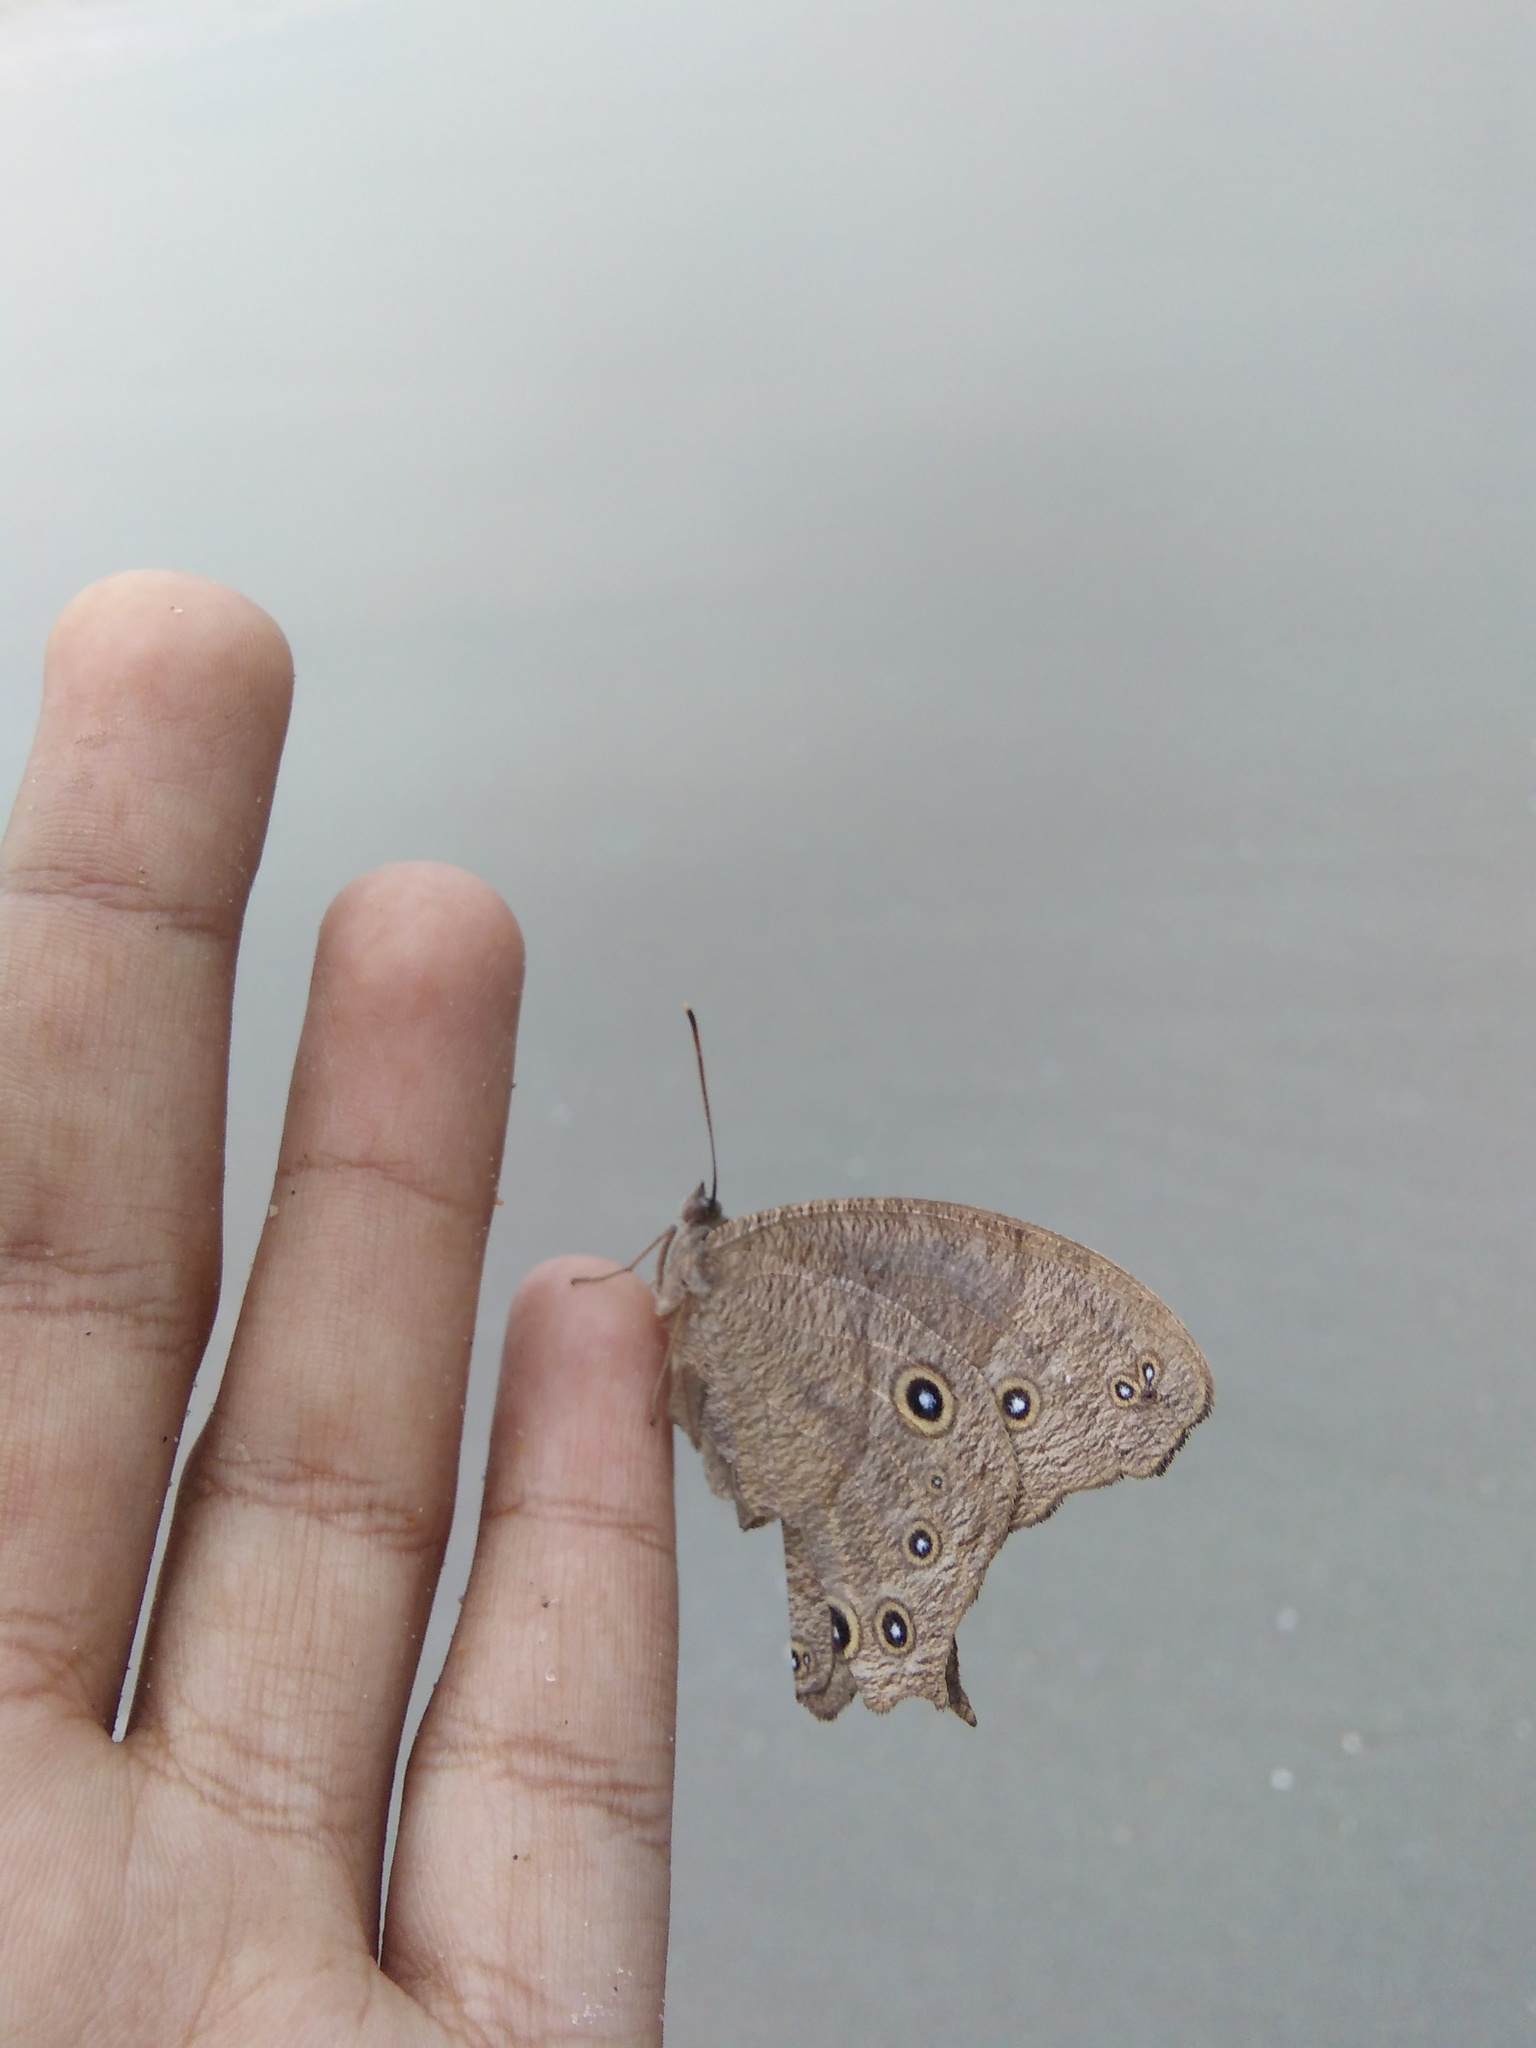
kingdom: Animalia
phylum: Arthropoda
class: Insecta
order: Lepidoptera
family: Nymphalidae
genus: Melanitis
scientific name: Melanitis leda
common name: Twilight brown
